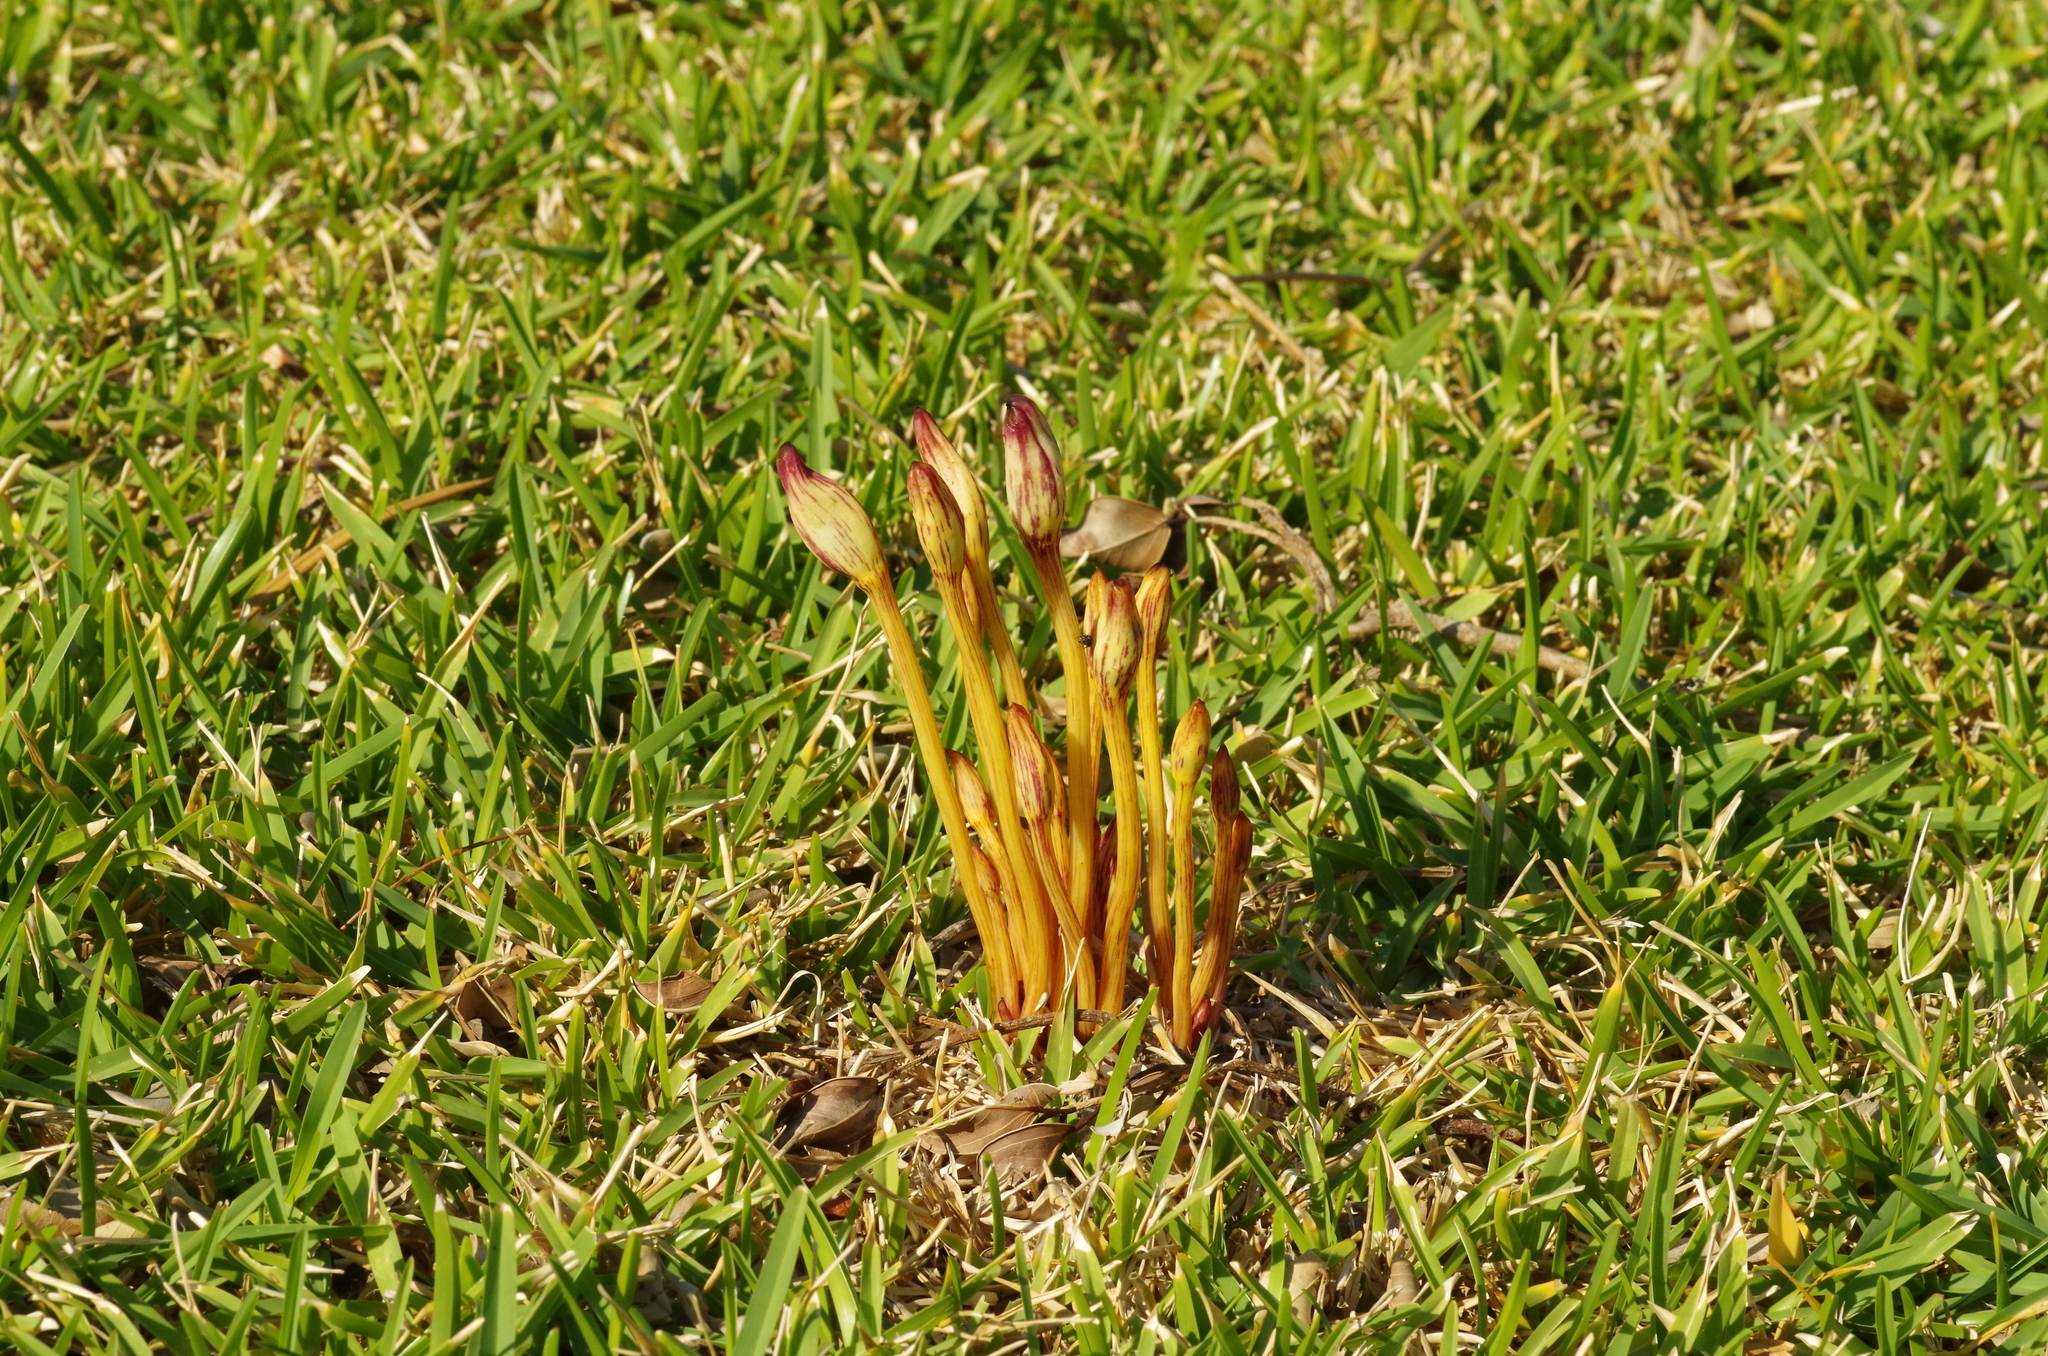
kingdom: Plantae
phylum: Tracheophyta
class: Magnoliopsida
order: Lamiales
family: Orobanchaceae
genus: Aeginetia
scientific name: Aeginetia indica
